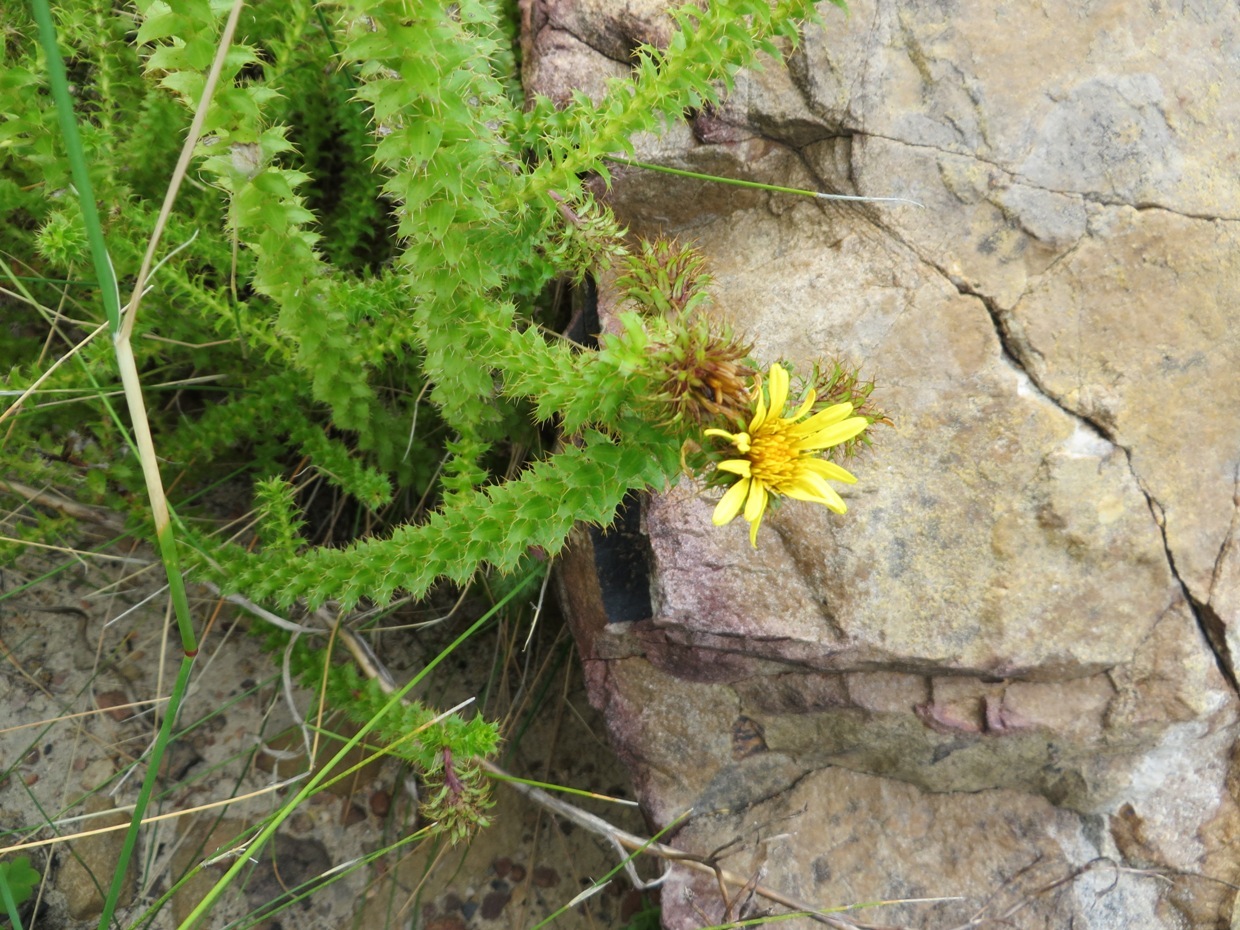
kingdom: Plantae
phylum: Tracheophyta
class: Magnoliopsida
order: Asterales
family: Asteraceae
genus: Cullumia
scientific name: Cullumia setosa
